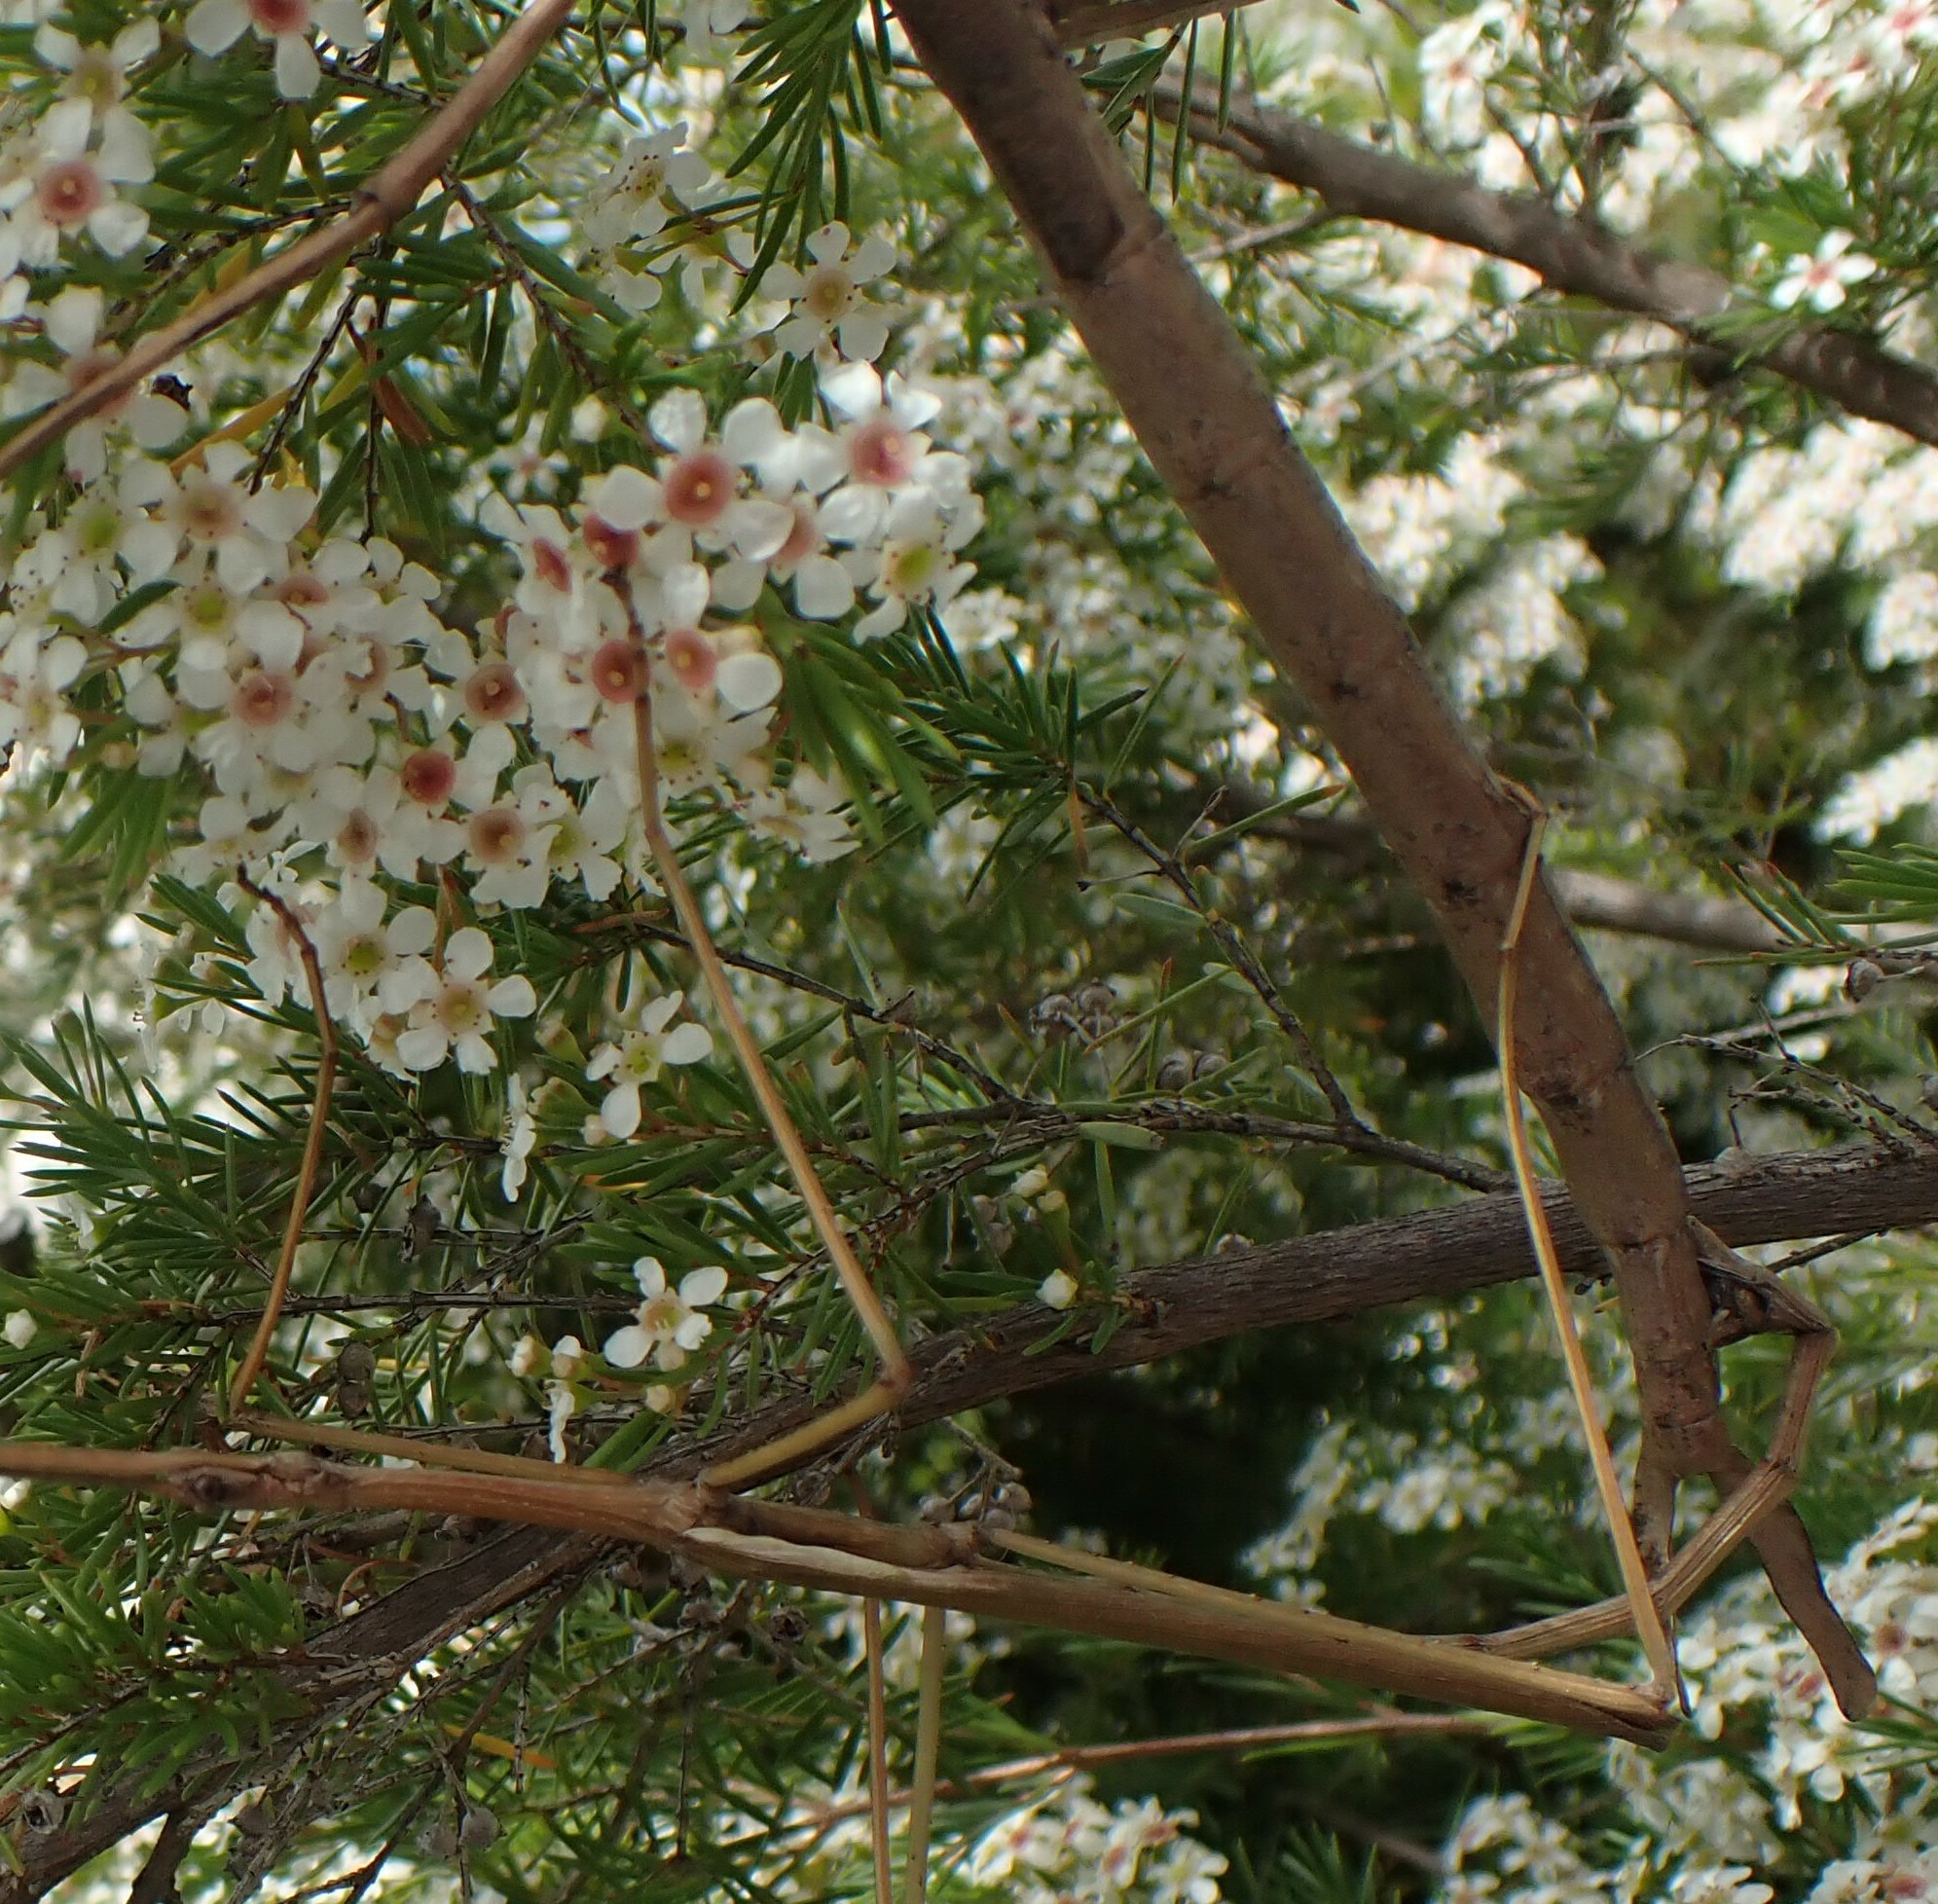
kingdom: Animalia
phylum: Arthropoda
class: Insecta
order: Phasmida
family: Phasmatidae
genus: Ctenomorpha
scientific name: Ctenomorpha marginipennis
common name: Margined-winged stick-insect
